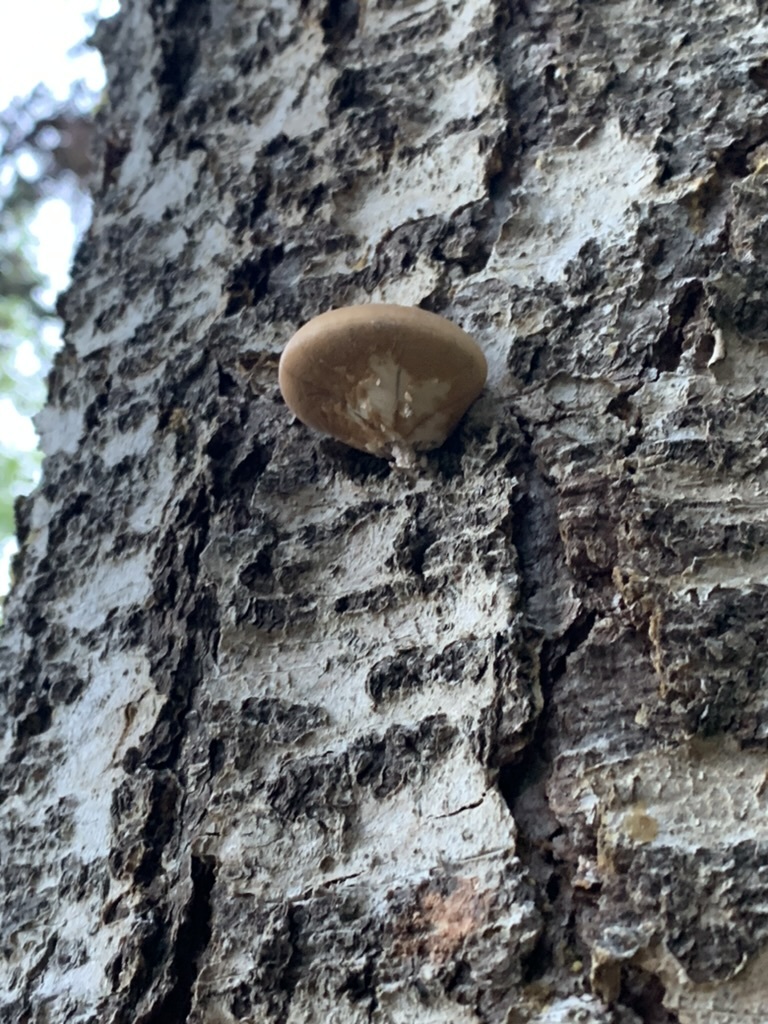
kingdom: Fungi
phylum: Basidiomycota
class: Agaricomycetes
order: Polyporales
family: Polyporaceae
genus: Cryptoporus
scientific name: Cryptoporus volvatus
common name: Veiled polypore
